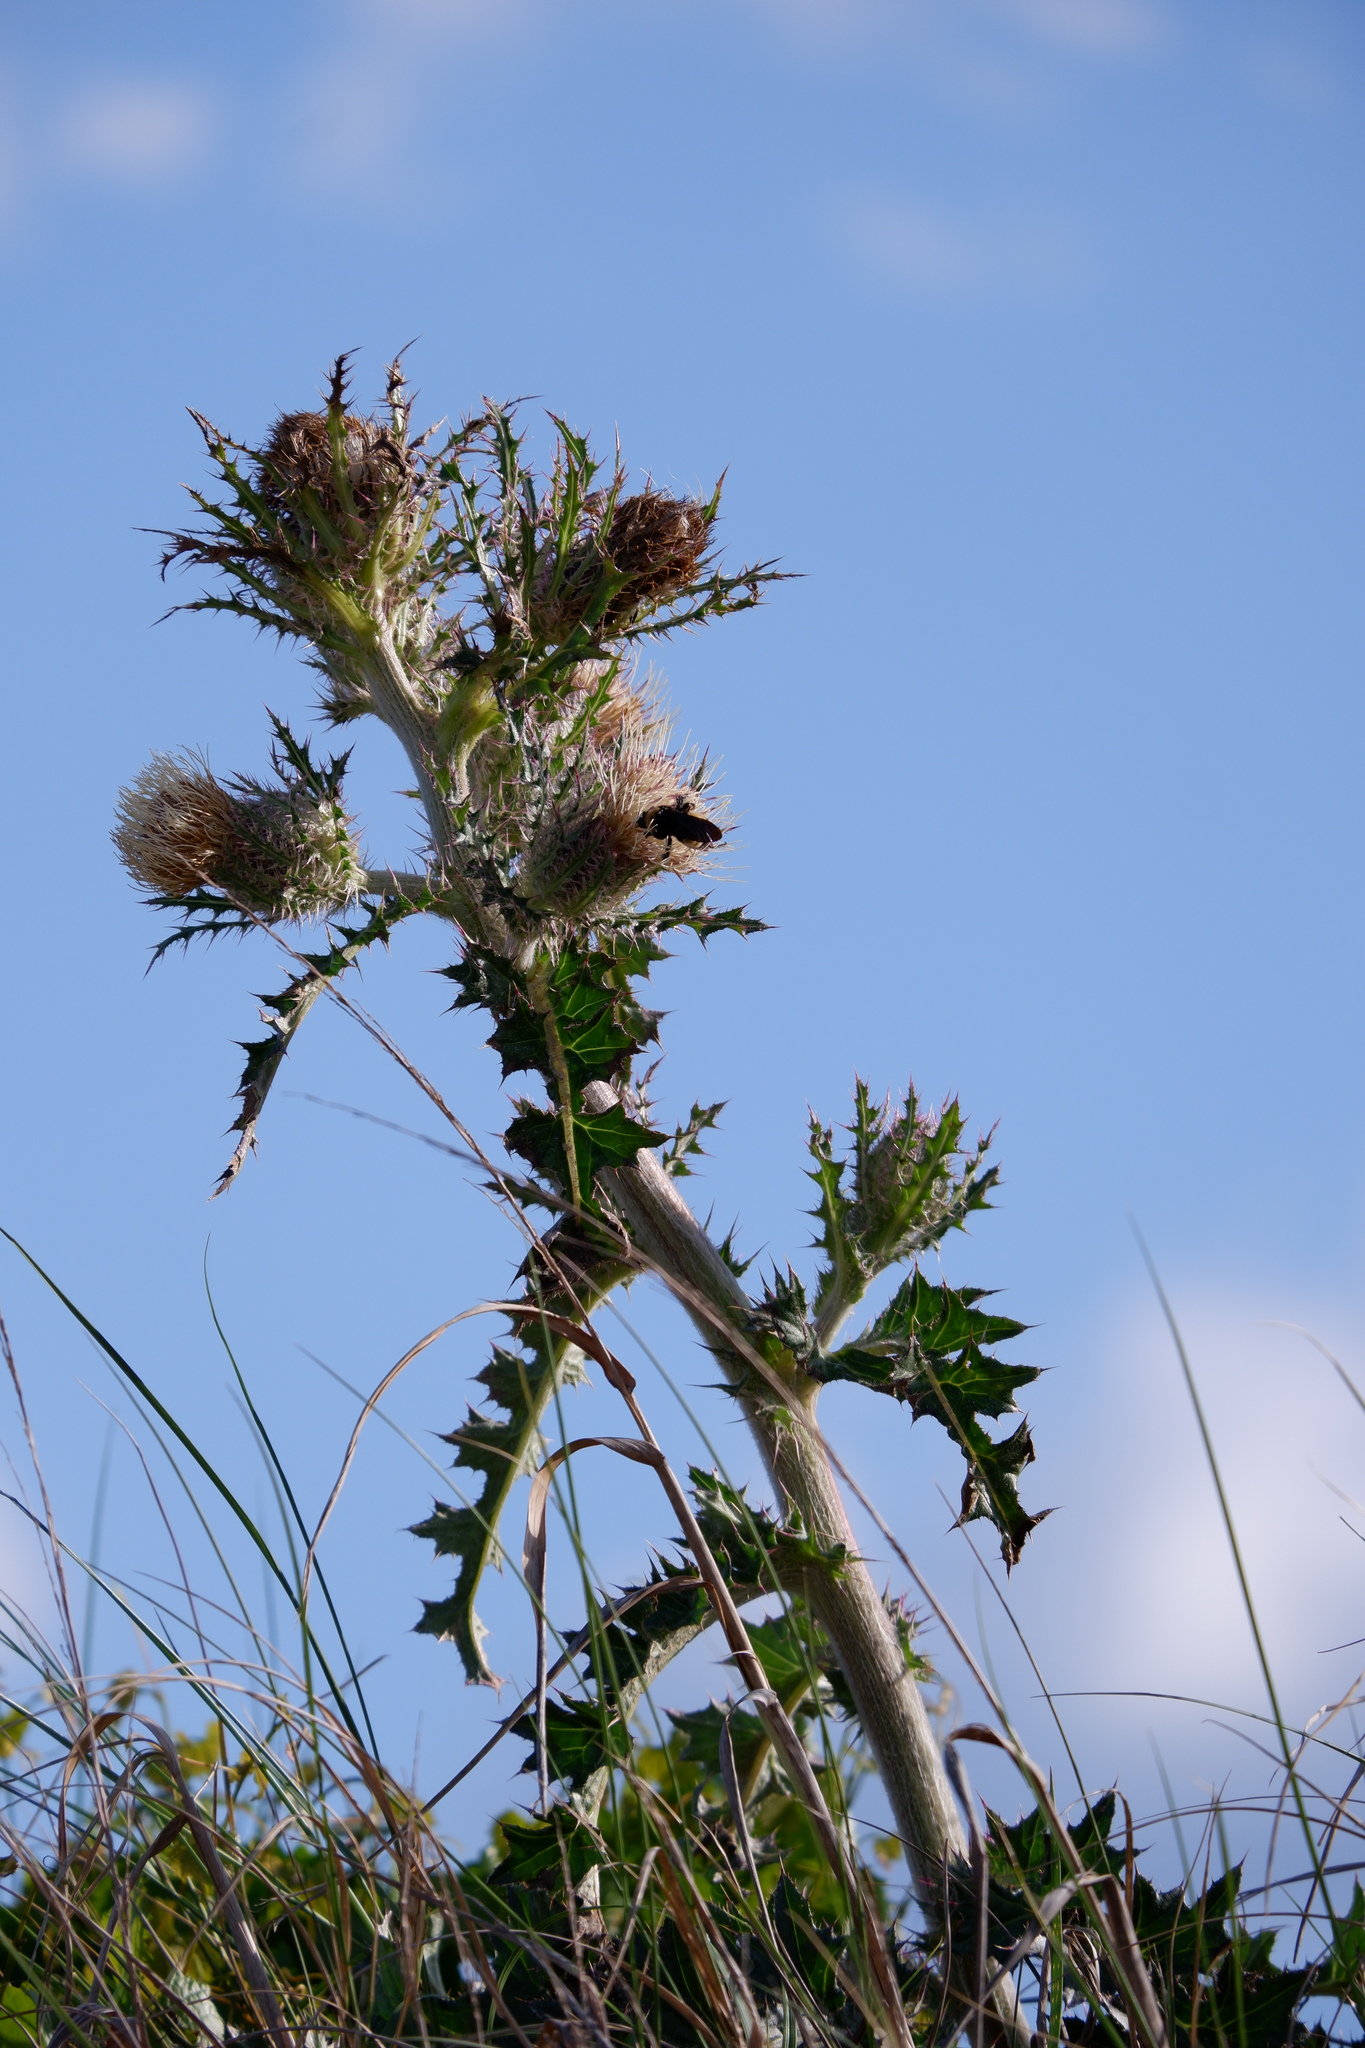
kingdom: Plantae
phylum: Tracheophyta
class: Magnoliopsida
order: Asterales
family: Asteraceae
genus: Cirsium
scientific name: Cirsium horridulum
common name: Bristly thistle
